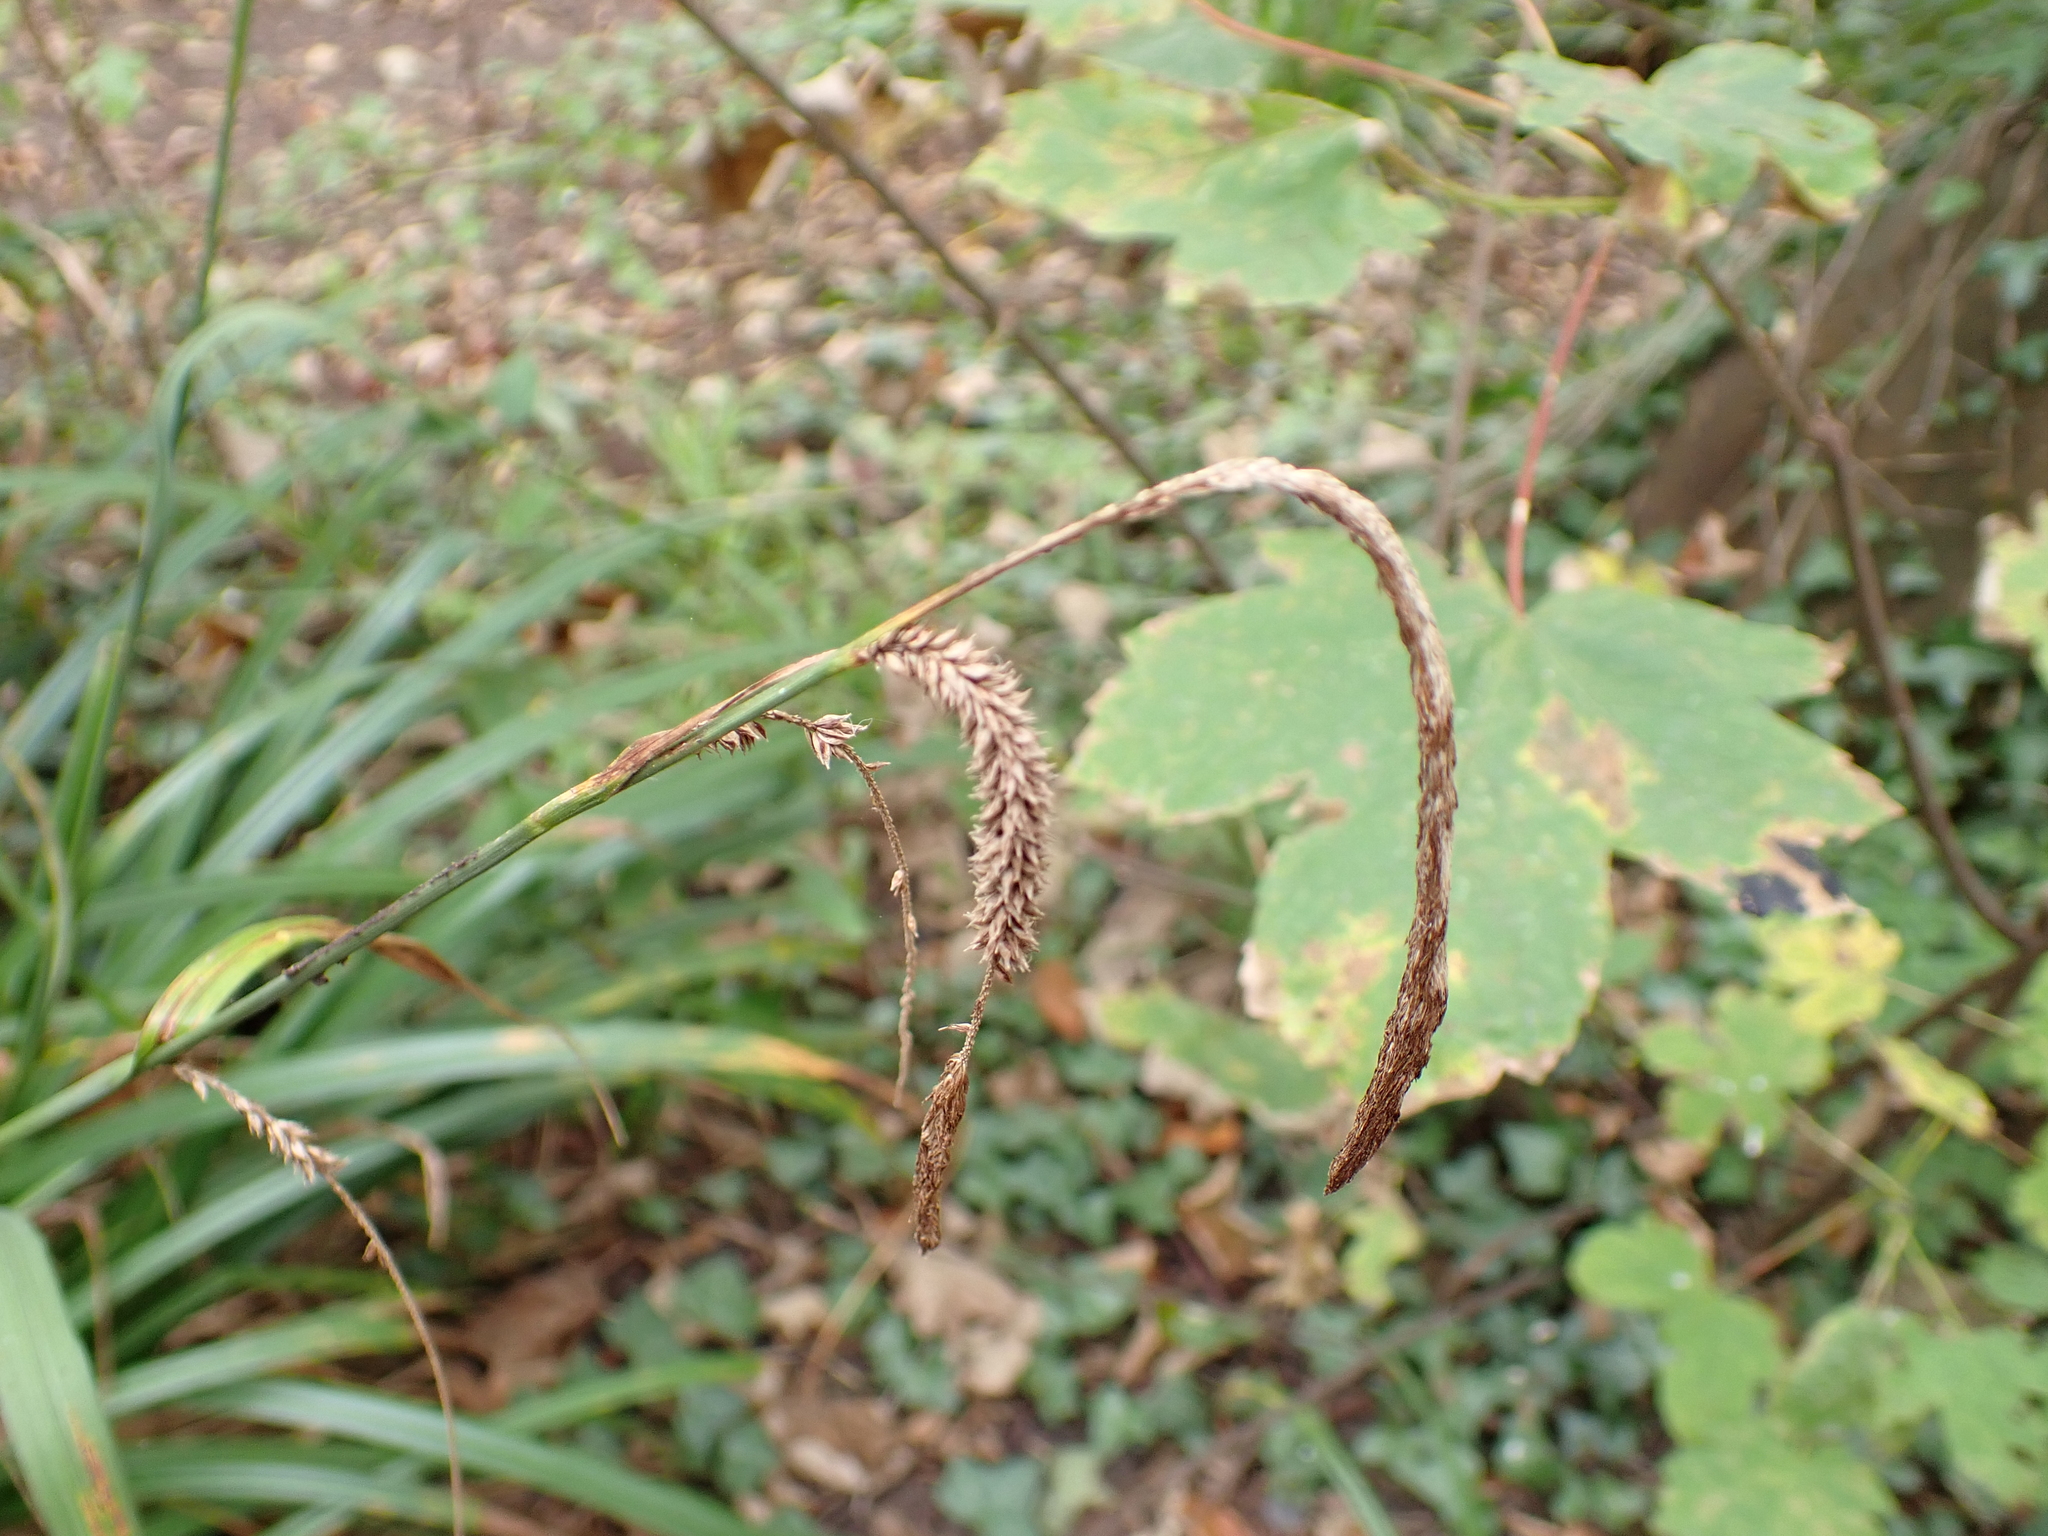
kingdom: Plantae
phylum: Tracheophyta
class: Liliopsida
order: Poales
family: Cyperaceae
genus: Carex
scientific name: Carex pendula
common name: Pendulous sedge
